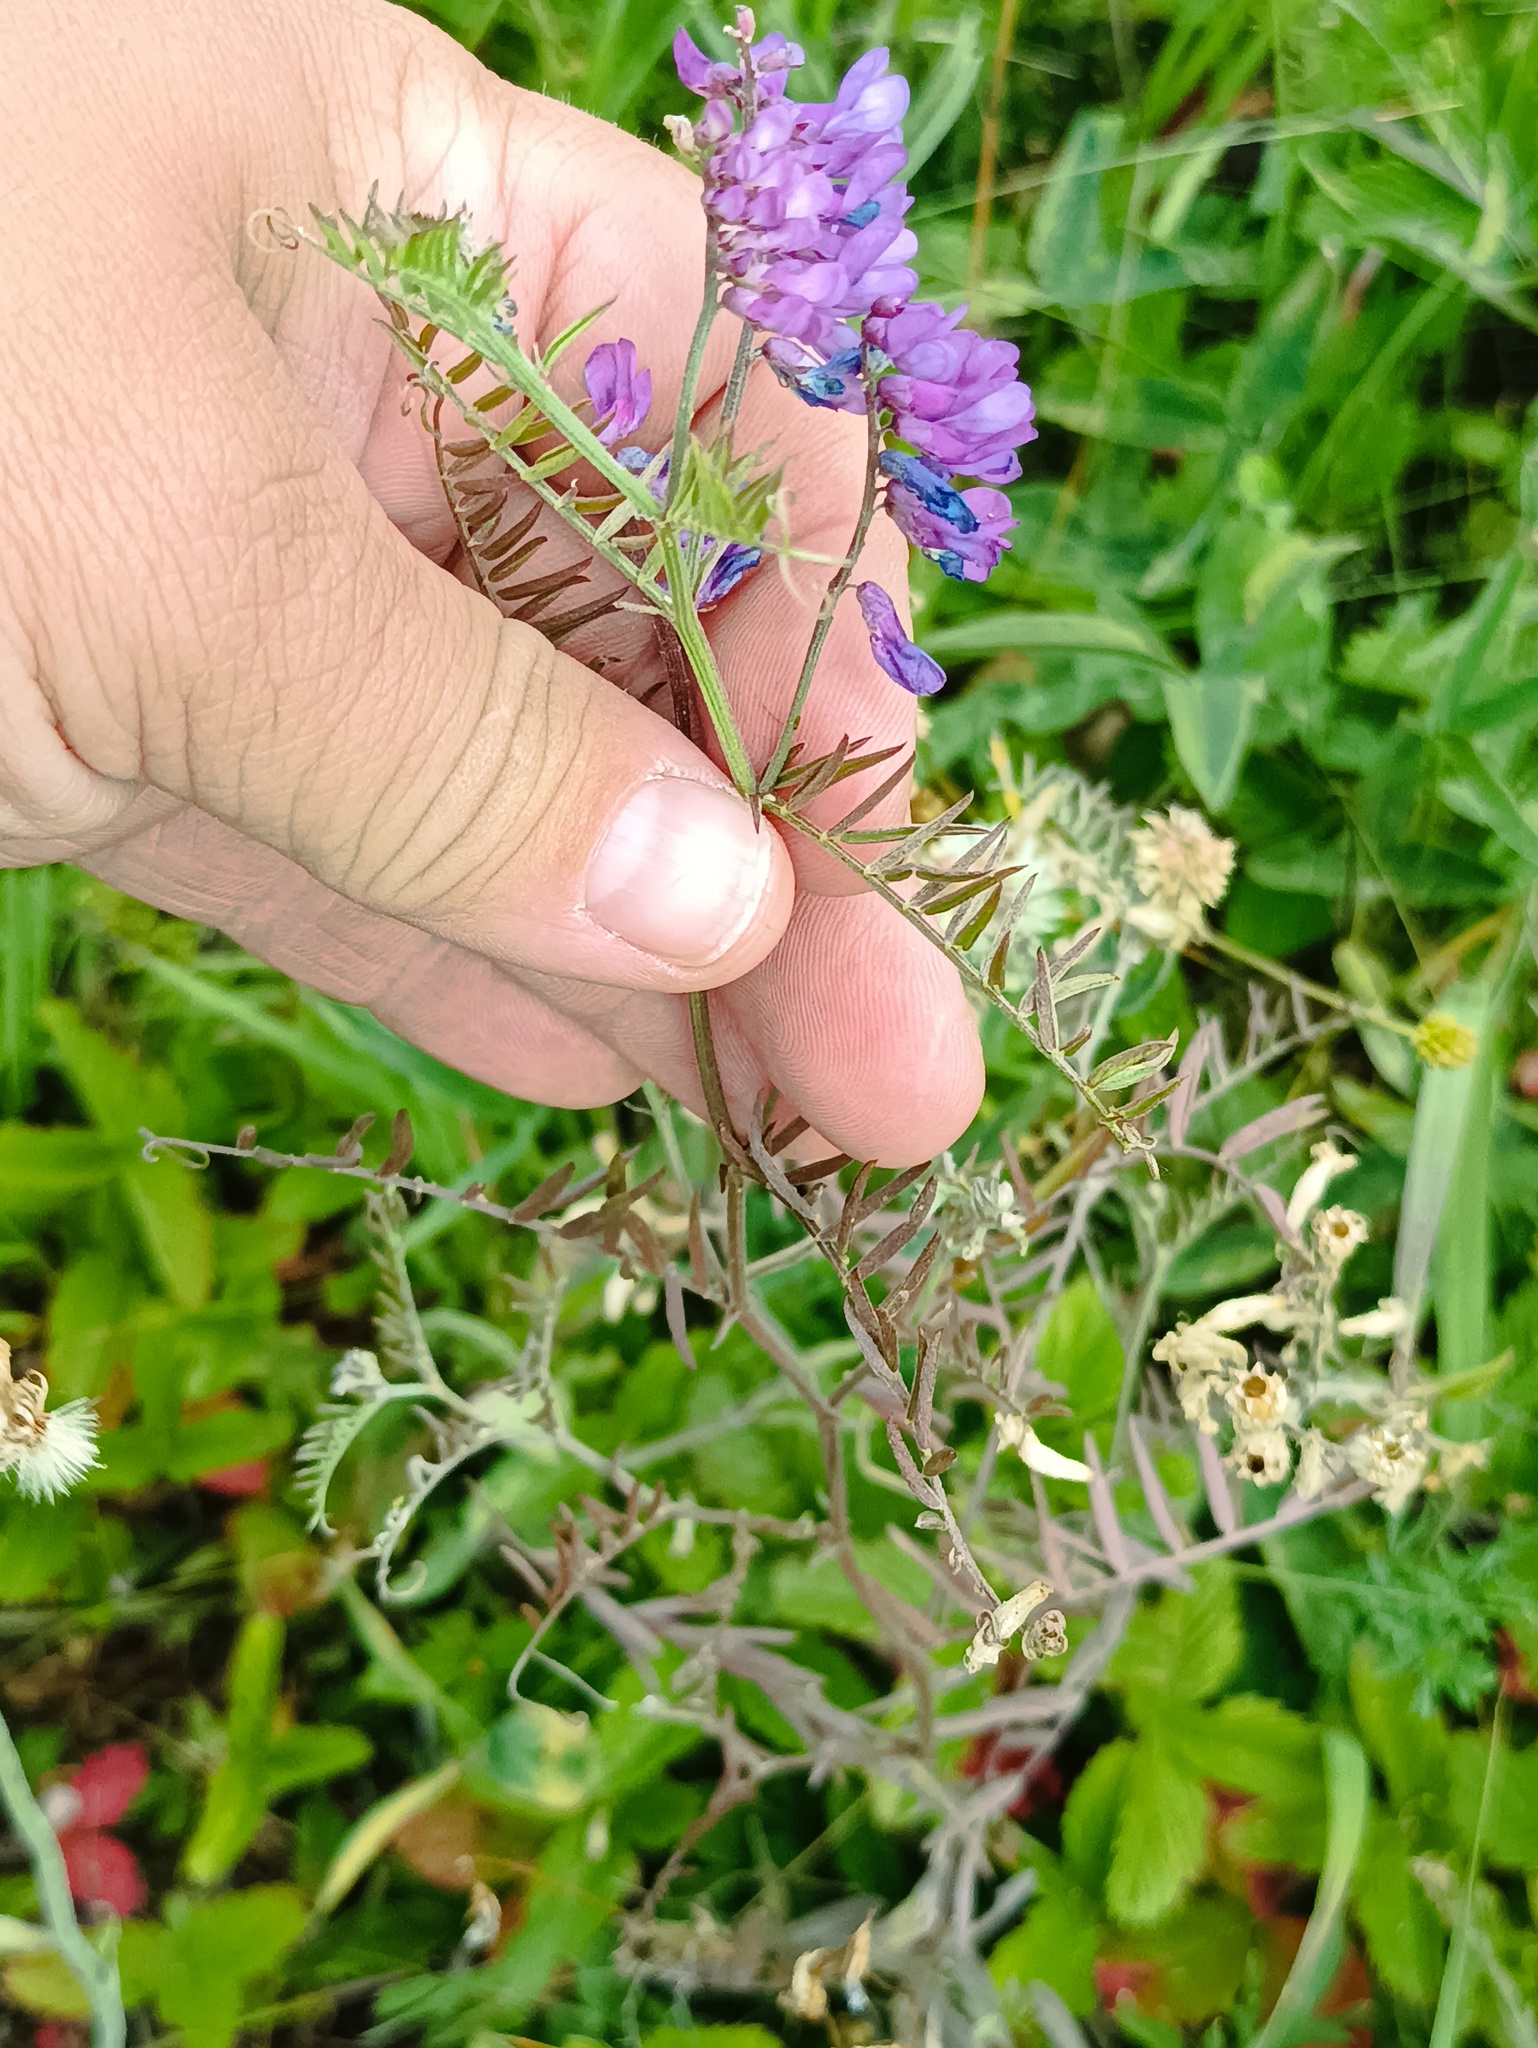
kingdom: Plantae
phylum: Tracheophyta
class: Magnoliopsida
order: Fabales
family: Fabaceae
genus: Vicia
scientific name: Vicia cracca
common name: Bird vetch
